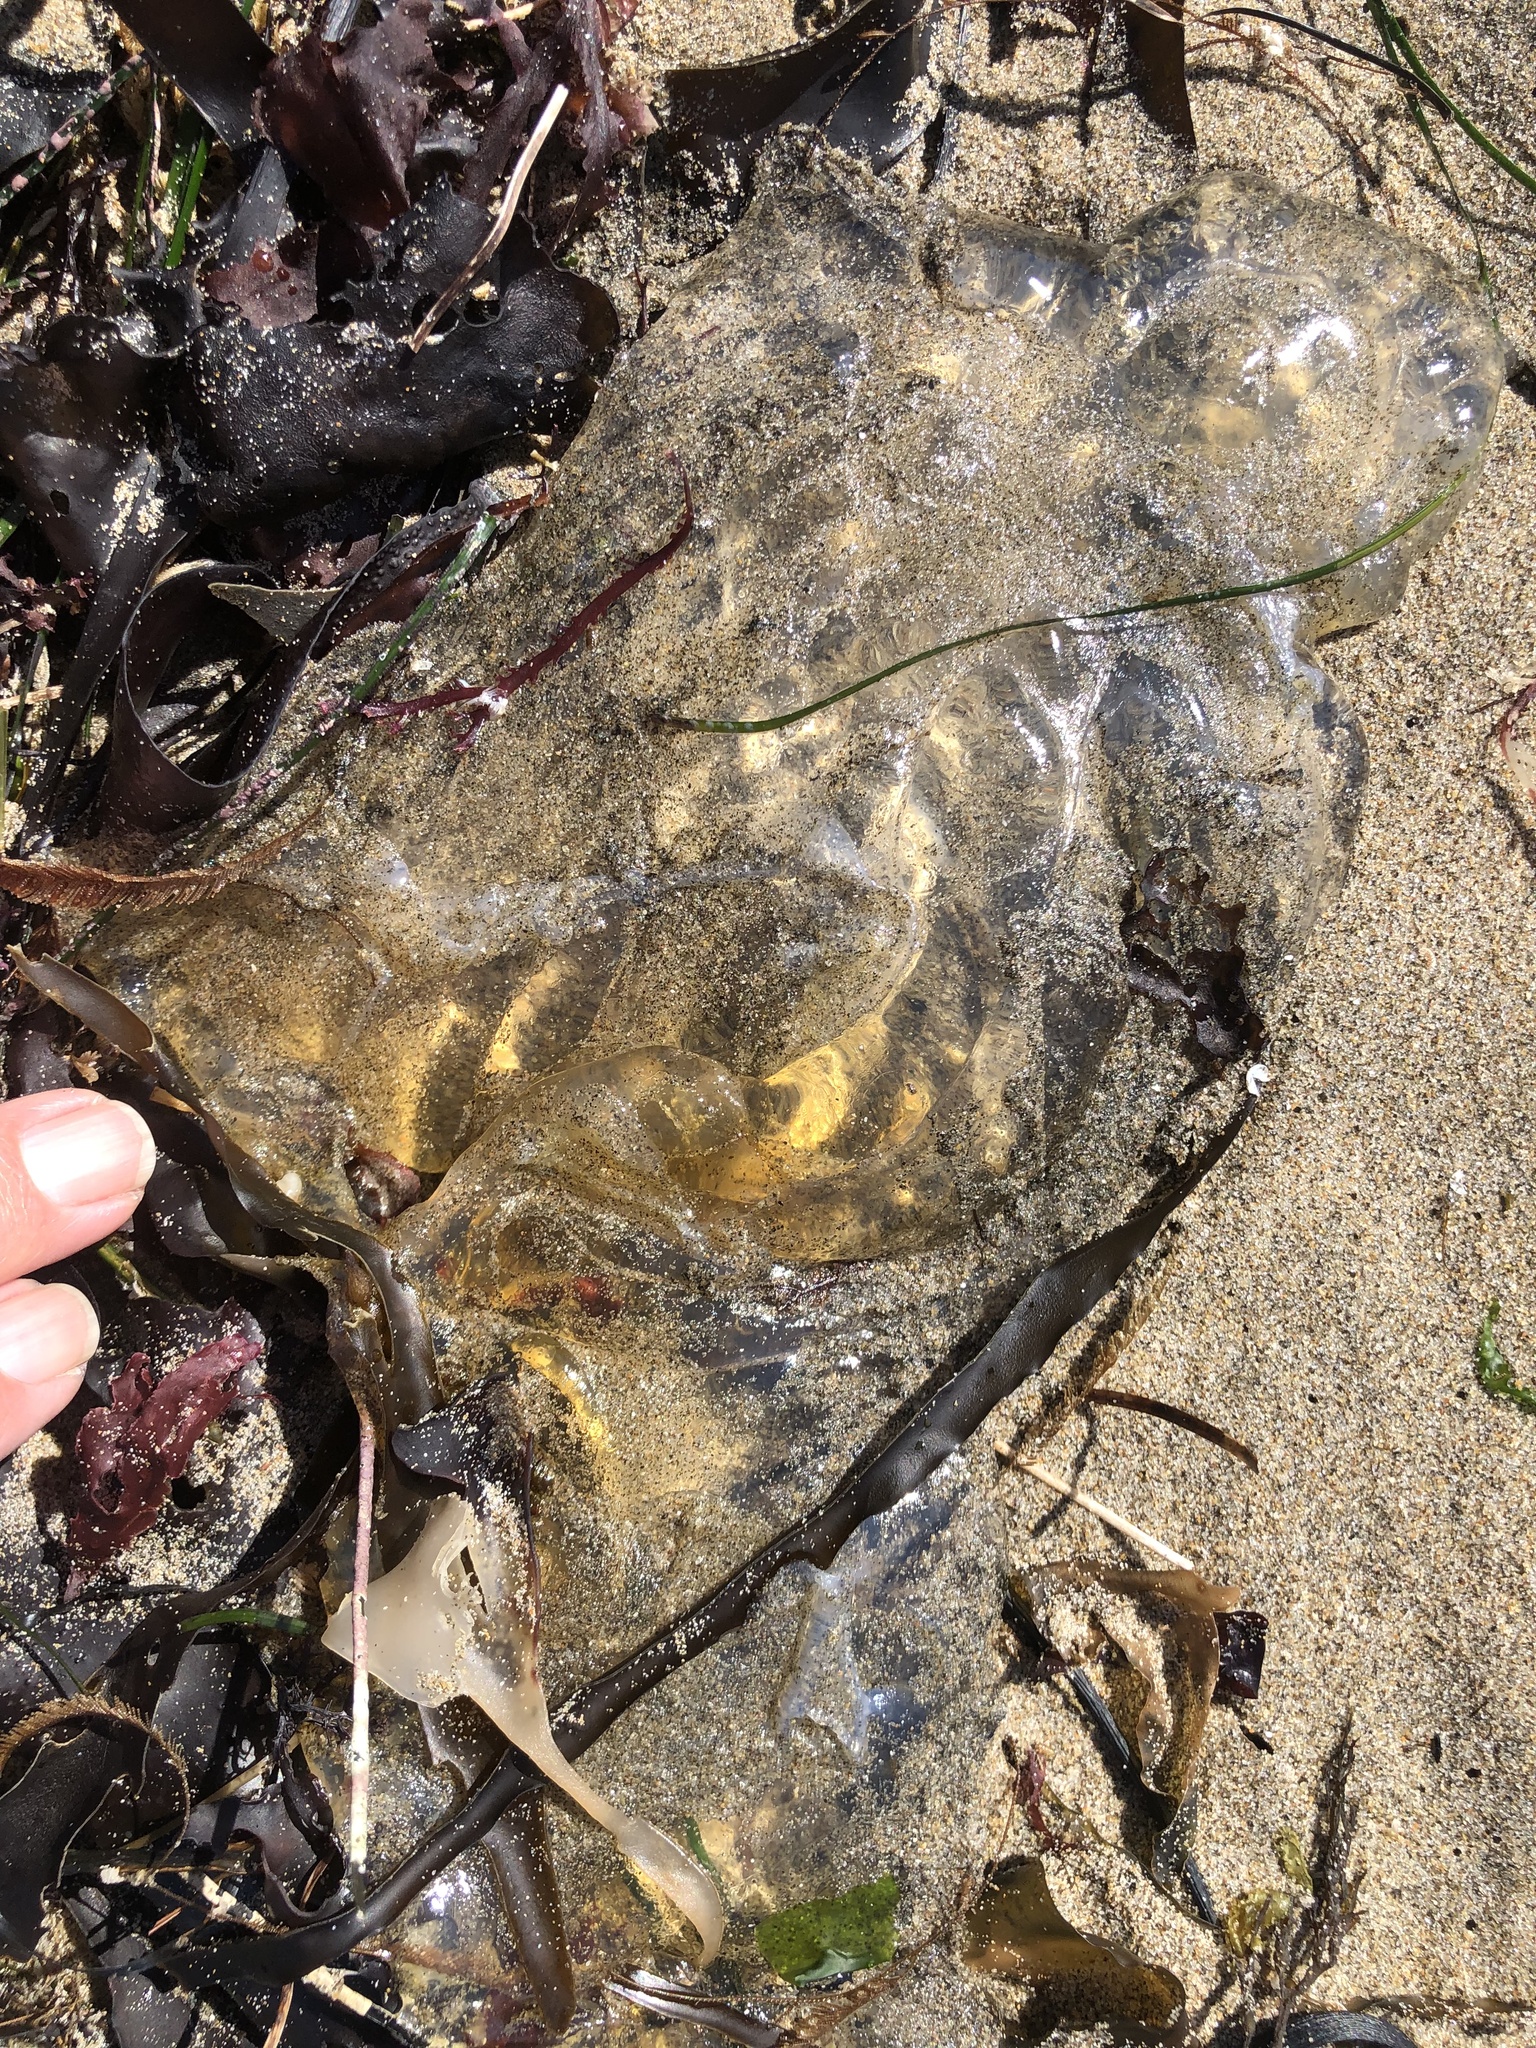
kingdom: Animalia
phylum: Cnidaria
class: Scyphozoa
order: Semaeostomeae
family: Pelagiidae
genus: Chrysaora
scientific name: Chrysaora fuscescens
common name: Sea nettle
